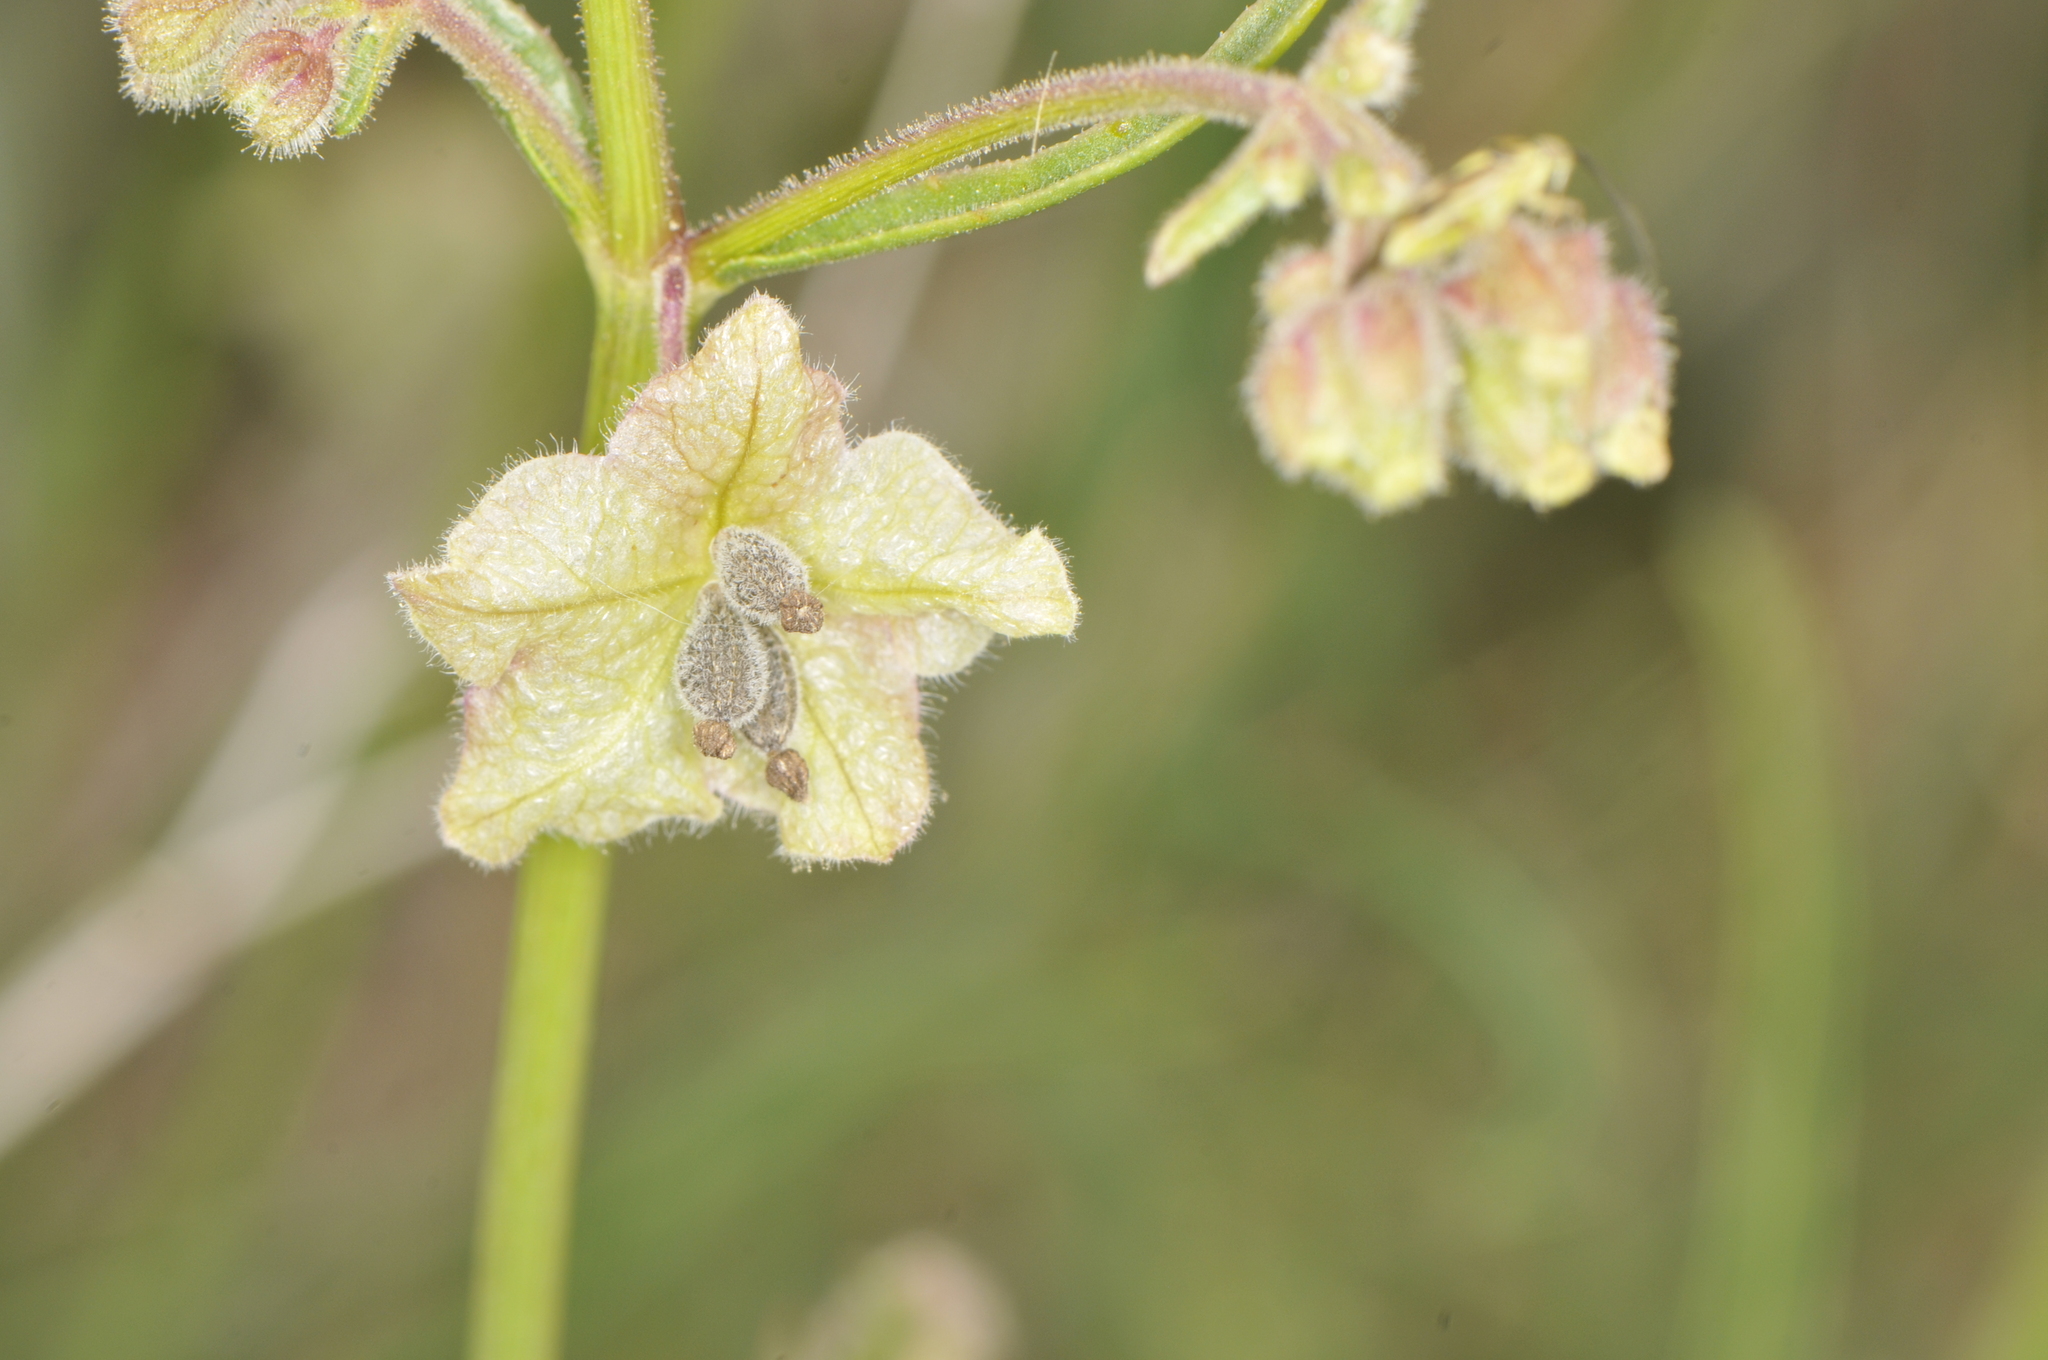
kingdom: Plantae
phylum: Tracheophyta
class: Magnoliopsida
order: Caryophyllales
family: Nyctaginaceae
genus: Mirabilis
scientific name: Mirabilis linearis
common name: Linear-leaved four-o'clock
